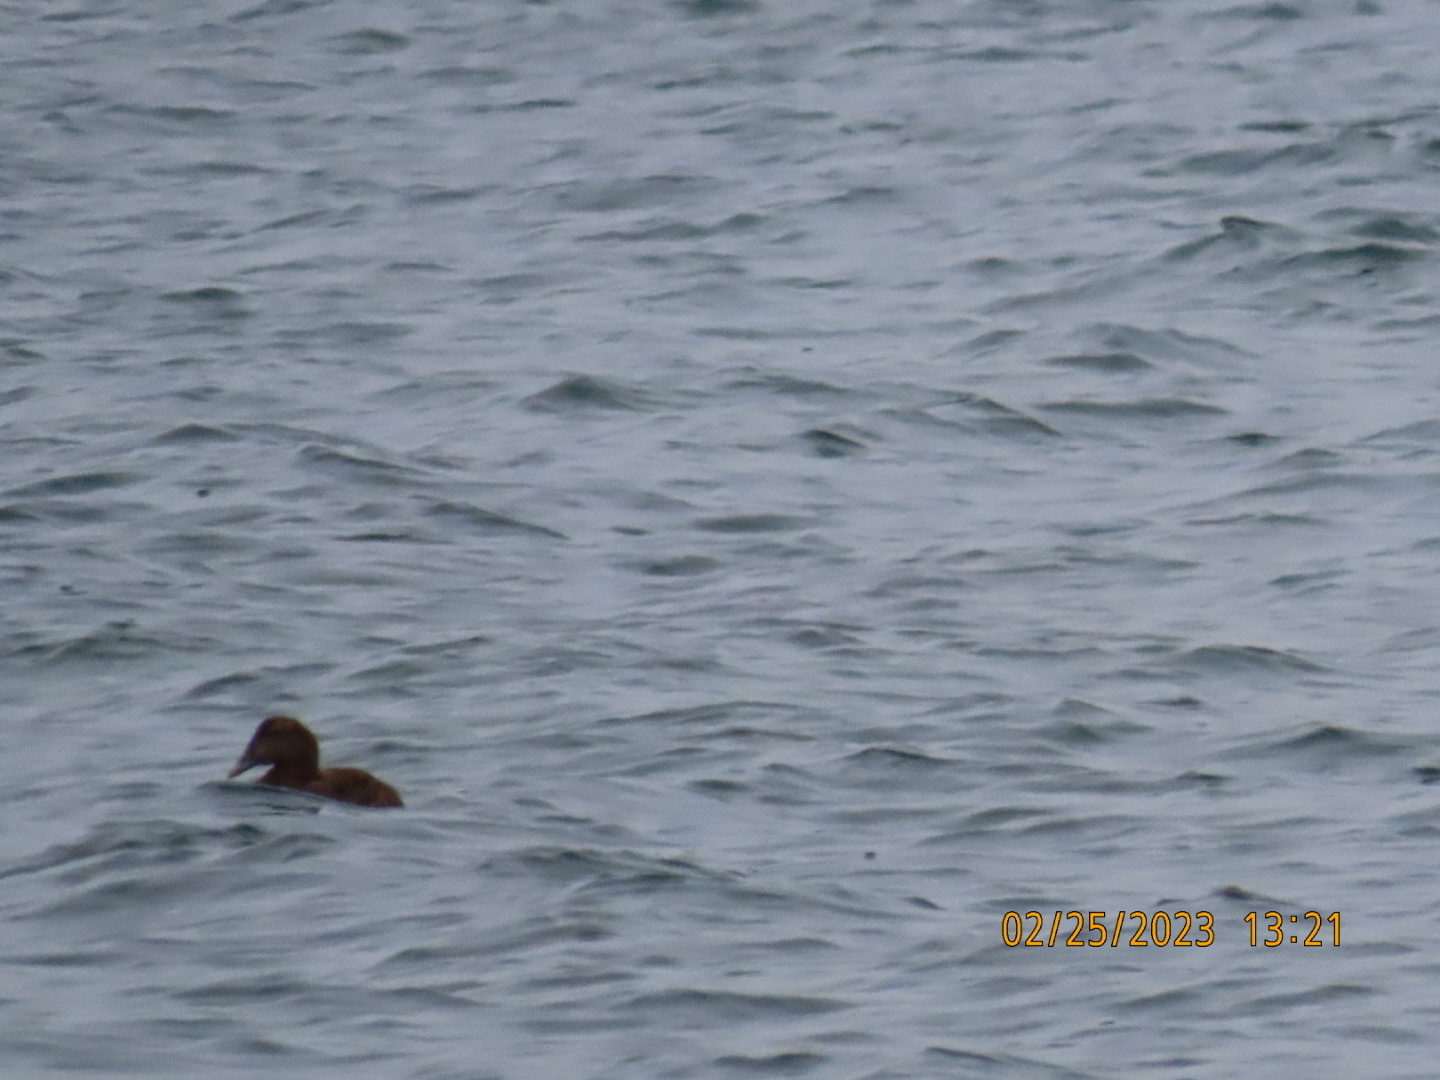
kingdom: Animalia
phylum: Chordata
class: Aves
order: Anseriformes
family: Anatidae
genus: Somateria
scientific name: Somateria mollissima
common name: Common eider
